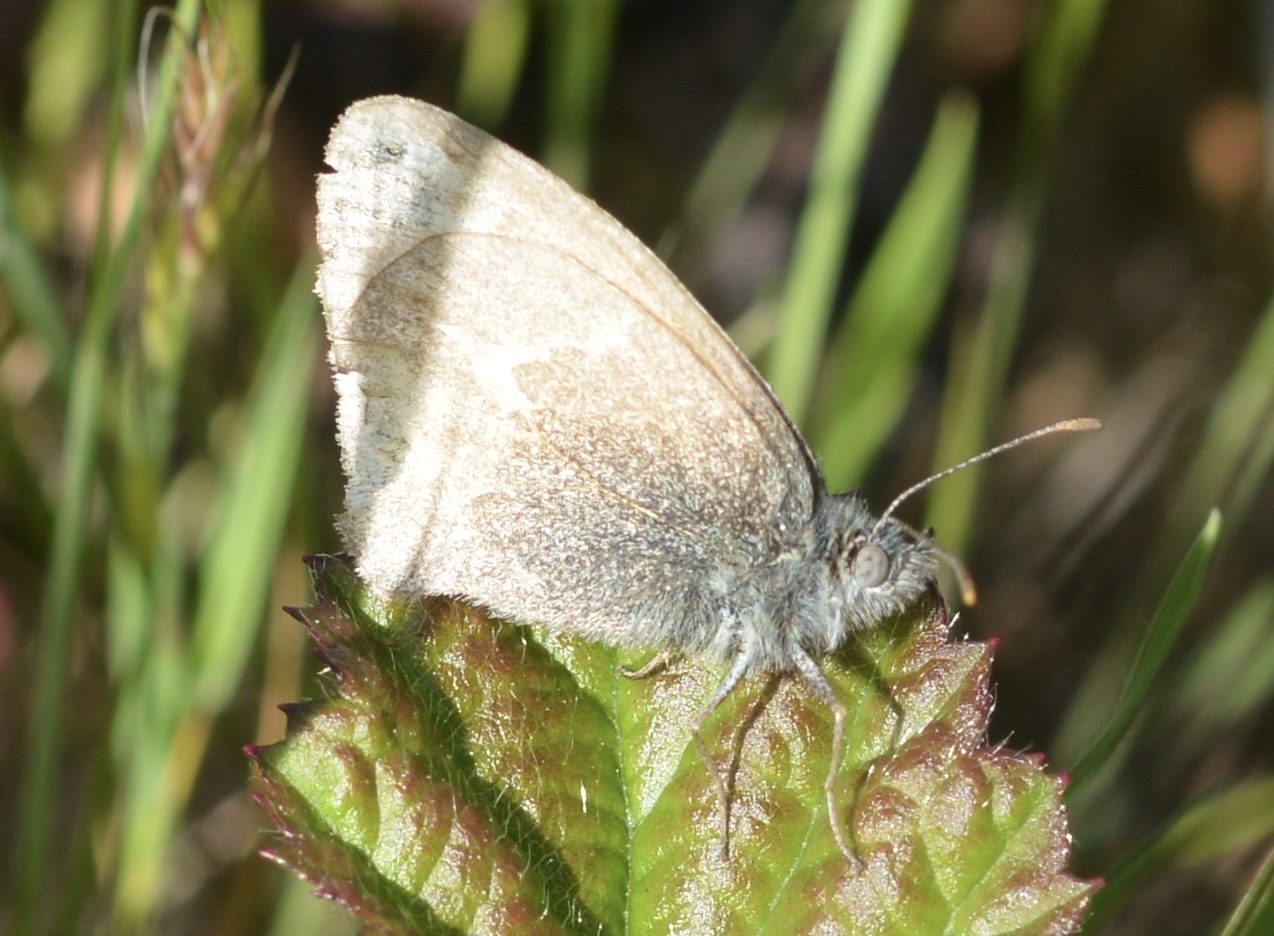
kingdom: Animalia
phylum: Arthropoda
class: Insecta
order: Lepidoptera
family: Nymphalidae
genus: Coenonympha
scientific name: Coenonympha california
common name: Common ringlet
